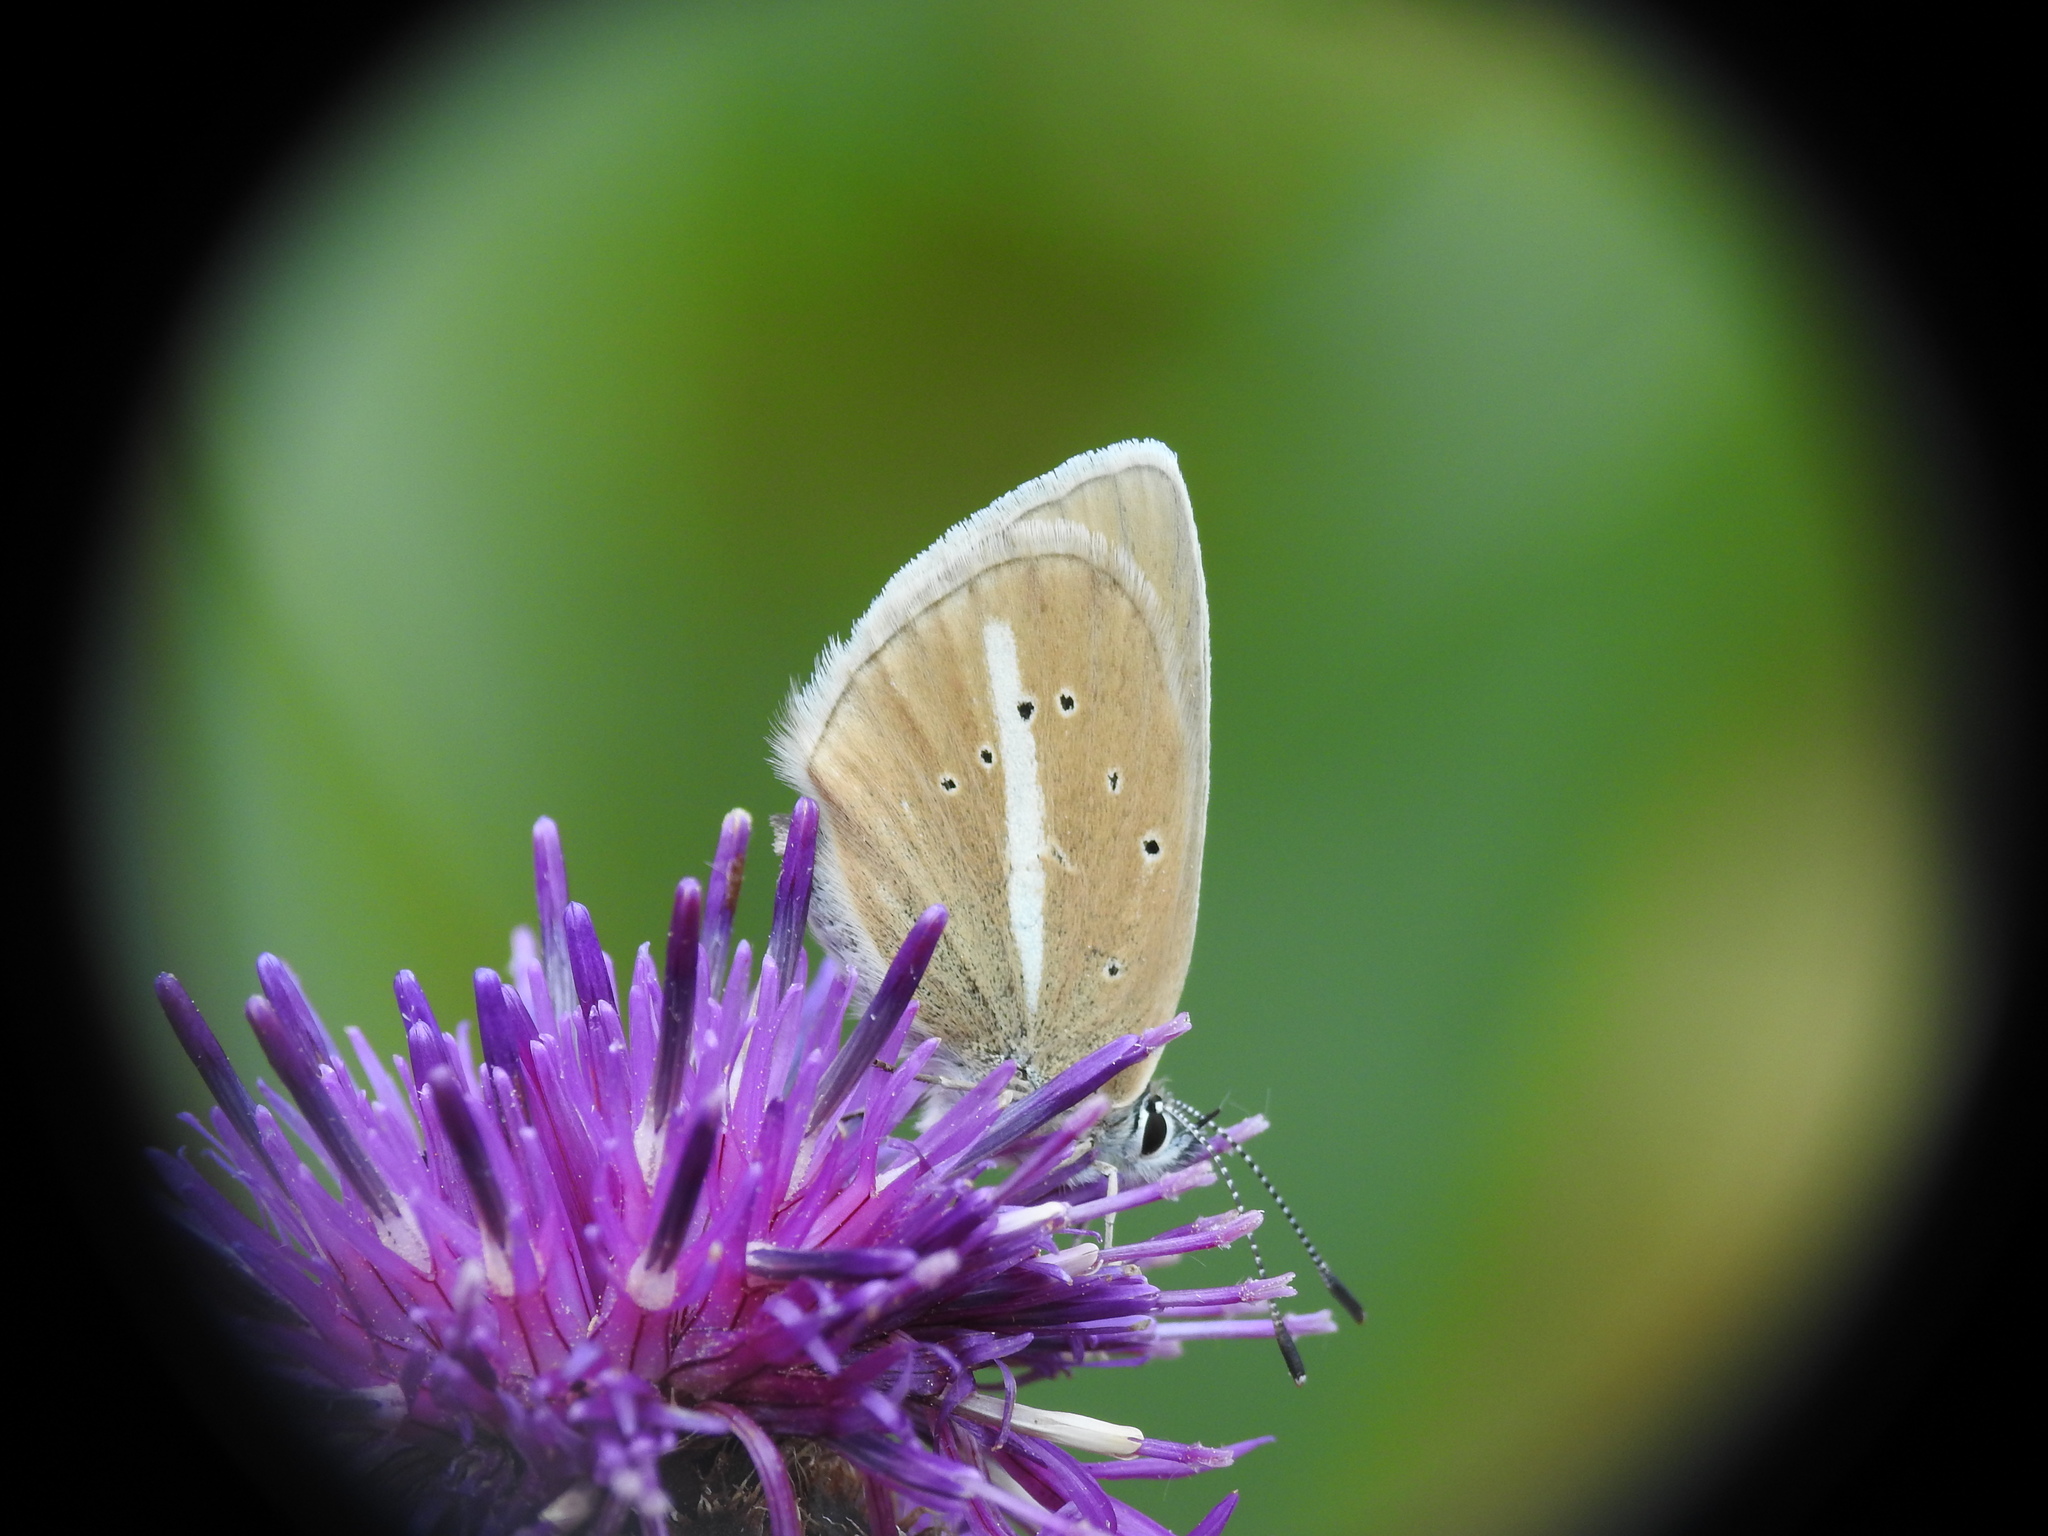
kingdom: Animalia
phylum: Arthropoda
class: Insecta
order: Lepidoptera
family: Lycaenidae
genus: Agrodiaetus
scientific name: Agrodiaetus damon
